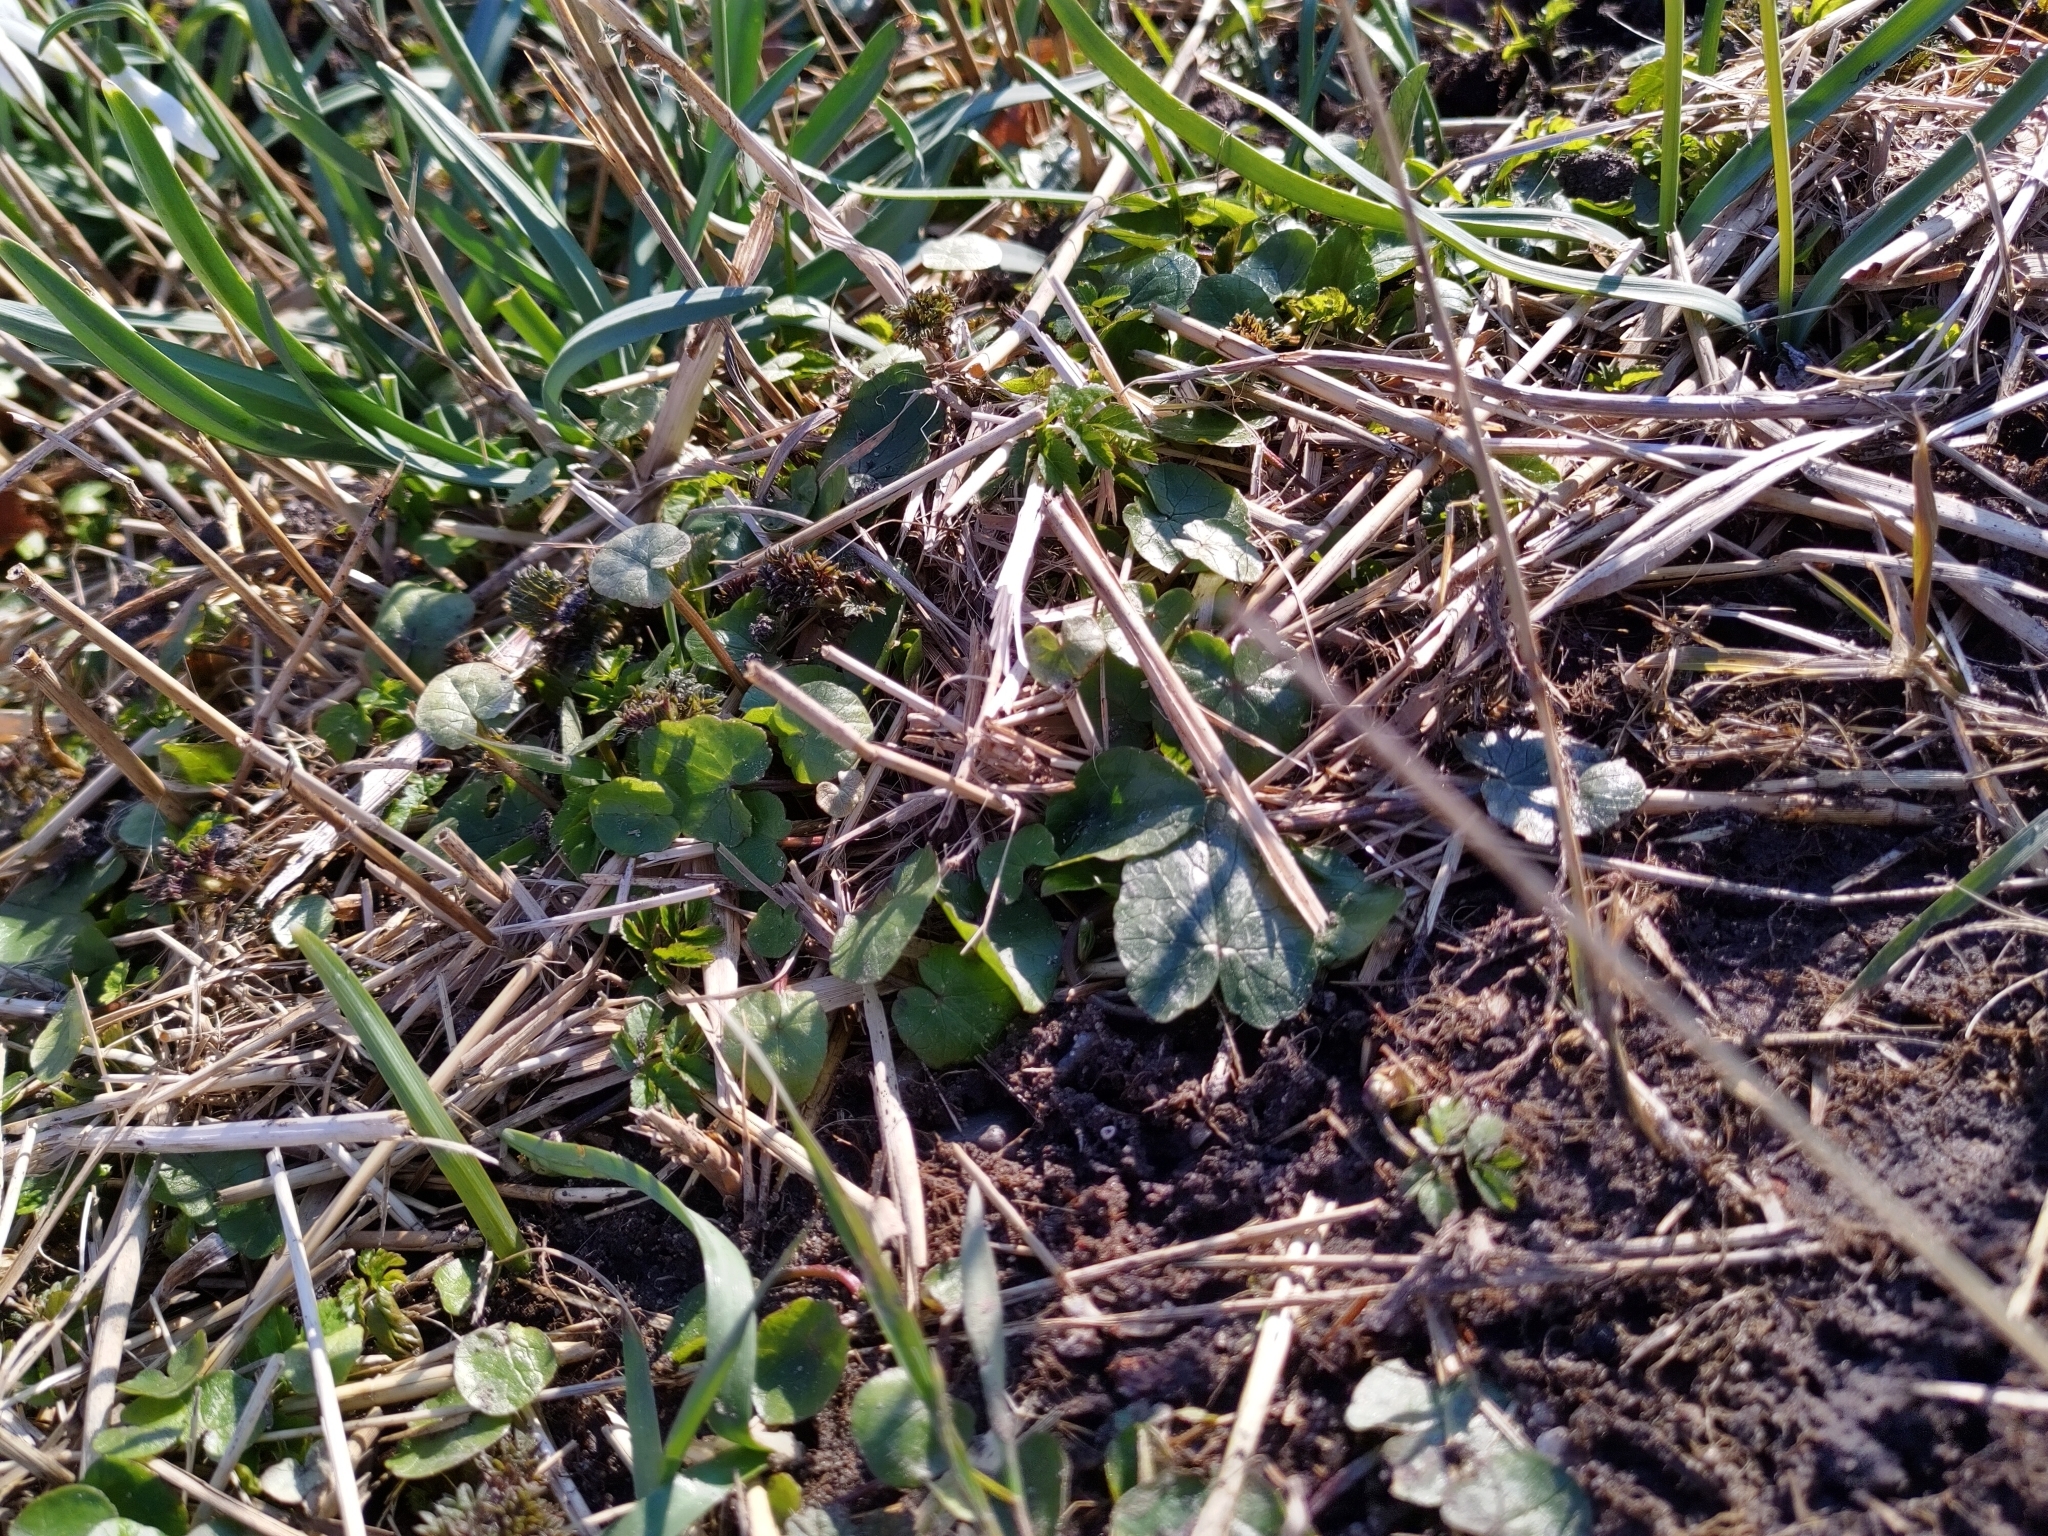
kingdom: Plantae
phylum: Tracheophyta
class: Magnoliopsida
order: Ranunculales
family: Ranunculaceae
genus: Ficaria
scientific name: Ficaria verna
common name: Lesser celandine
